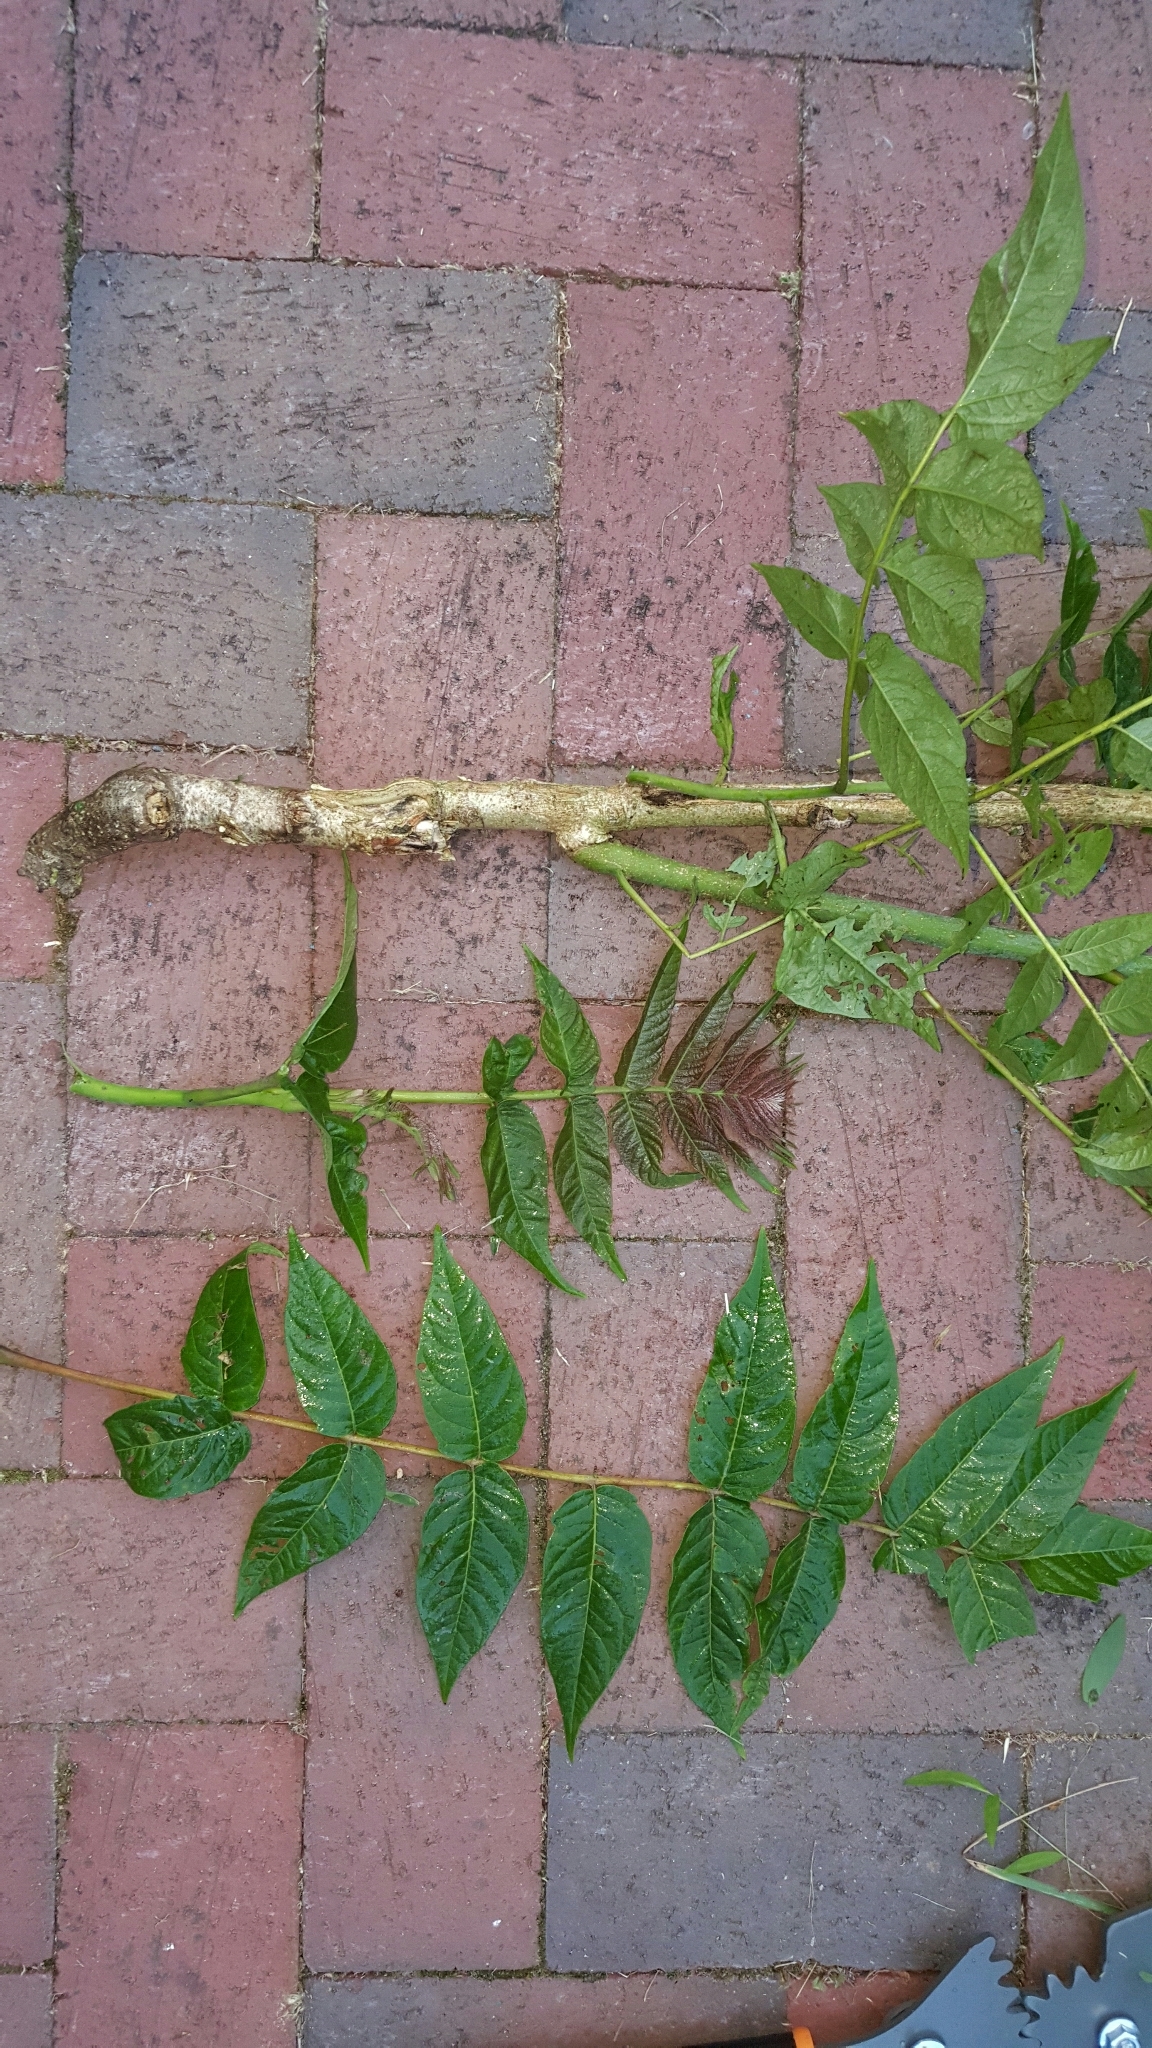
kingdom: Plantae
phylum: Tracheophyta
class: Magnoliopsida
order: Sapindales
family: Simaroubaceae
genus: Ailanthus
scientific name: Ailanthus altissima
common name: Tree-of-heaven
